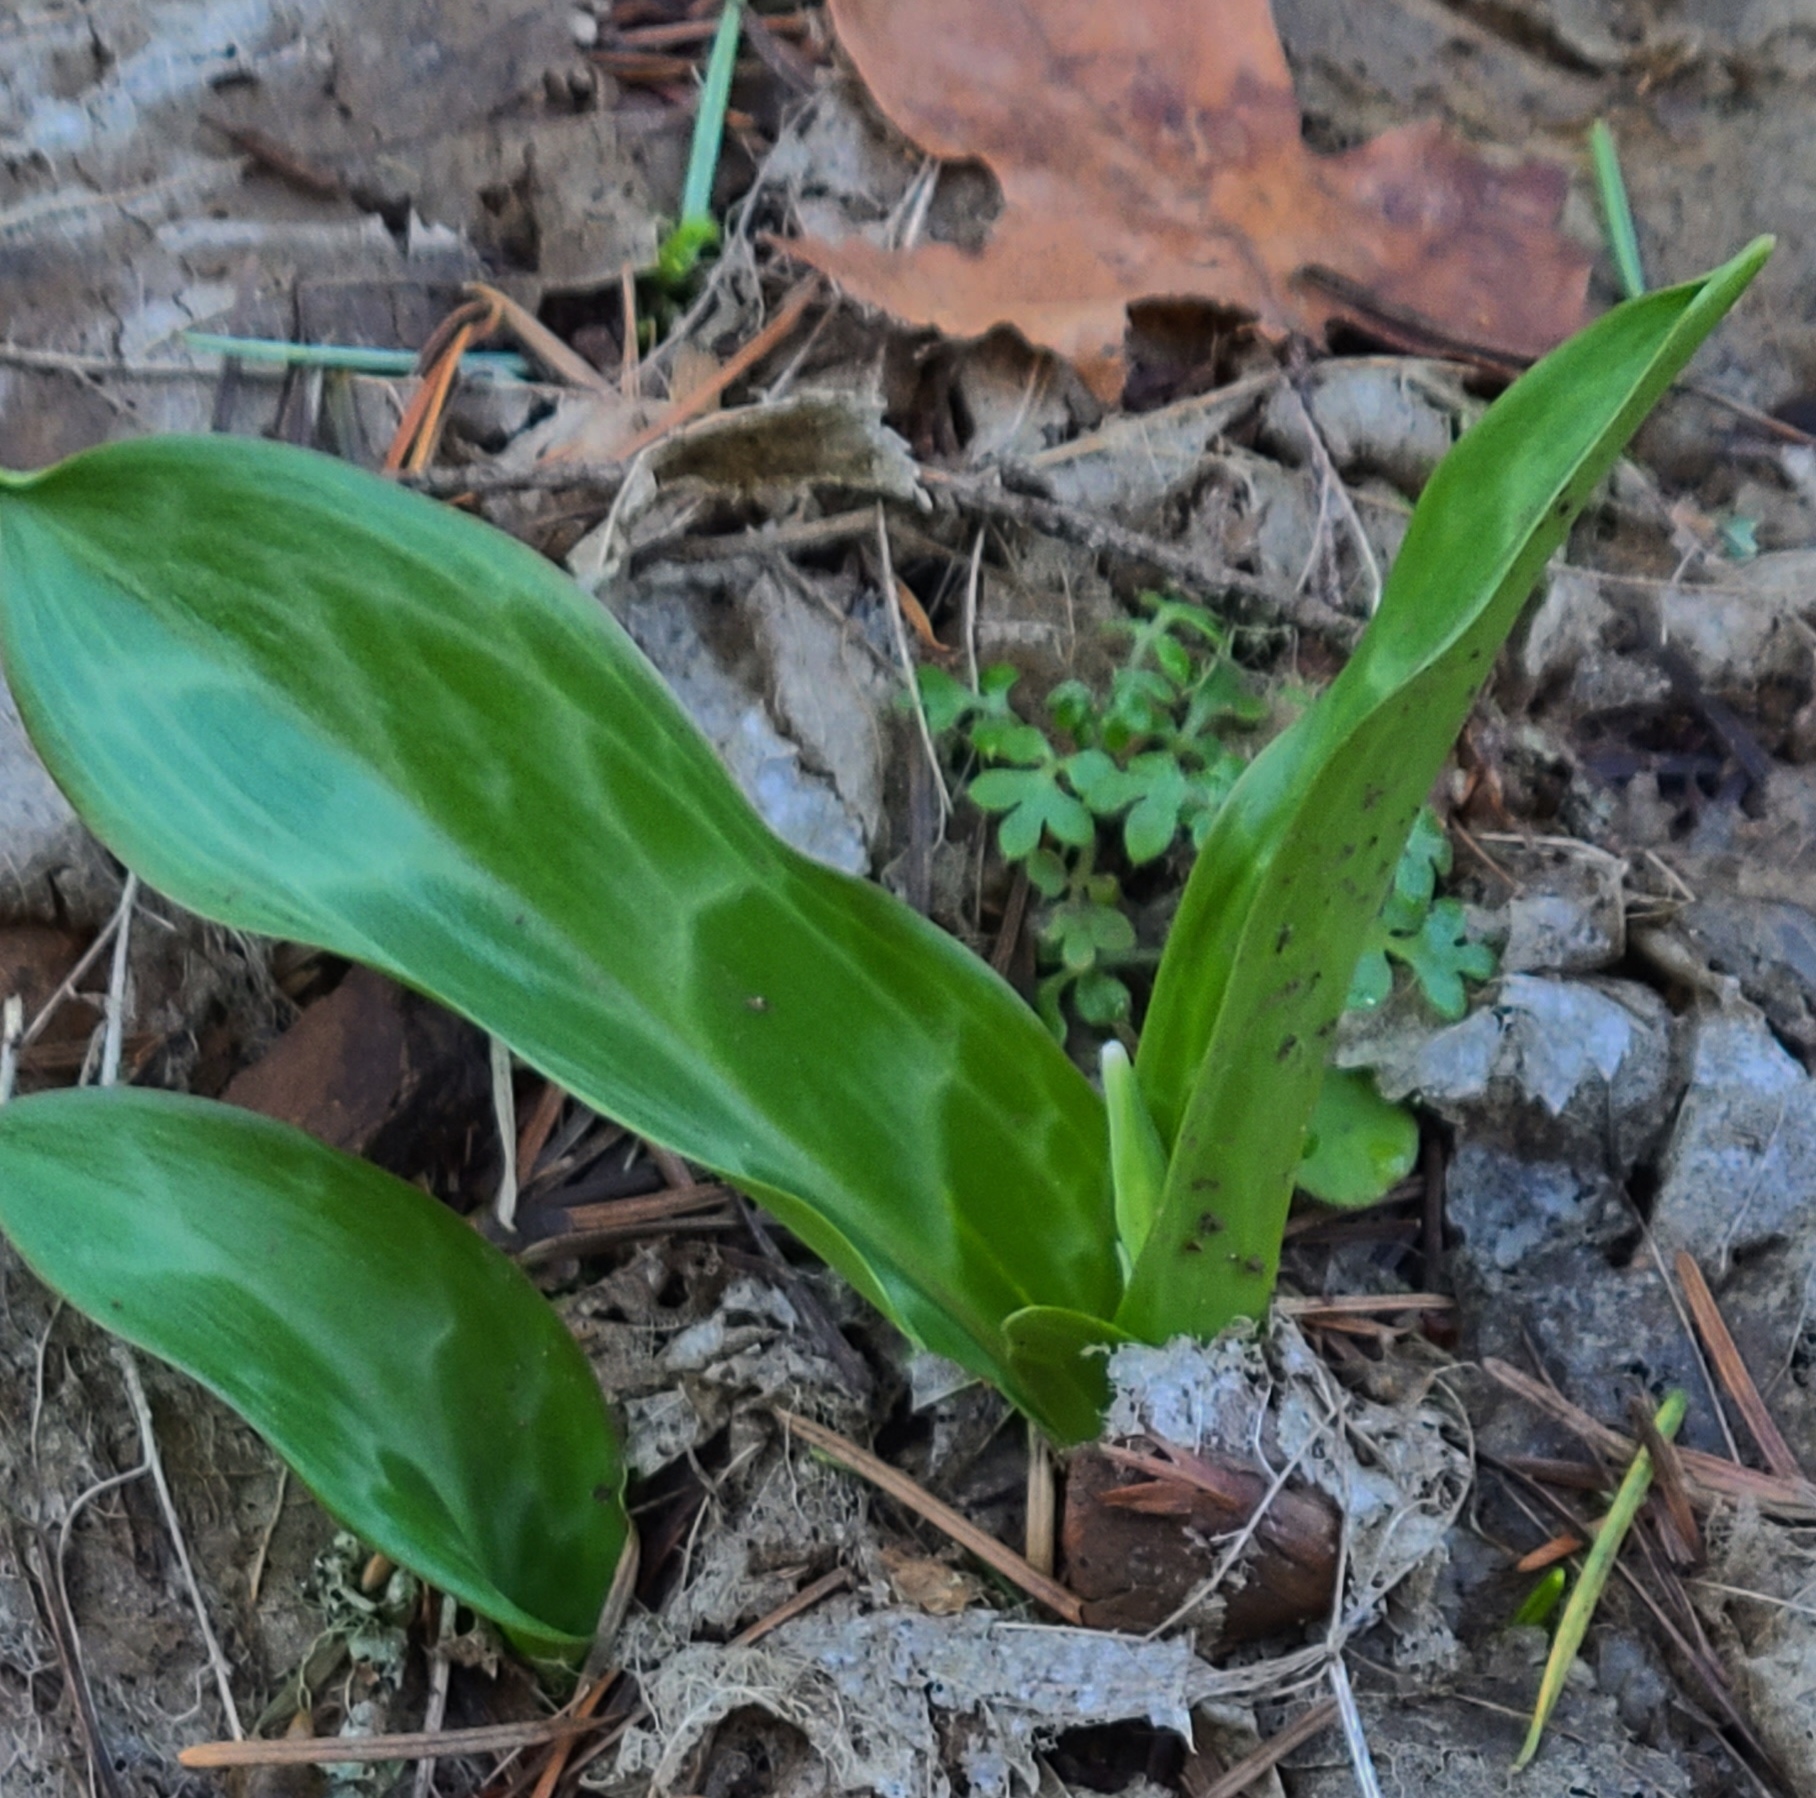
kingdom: Plantae
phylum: Tracheophyta
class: Liliopsida
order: Liliales
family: Liliaceae
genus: Erythronium
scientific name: Erythronium oregonum
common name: Giant adder's-tongue
